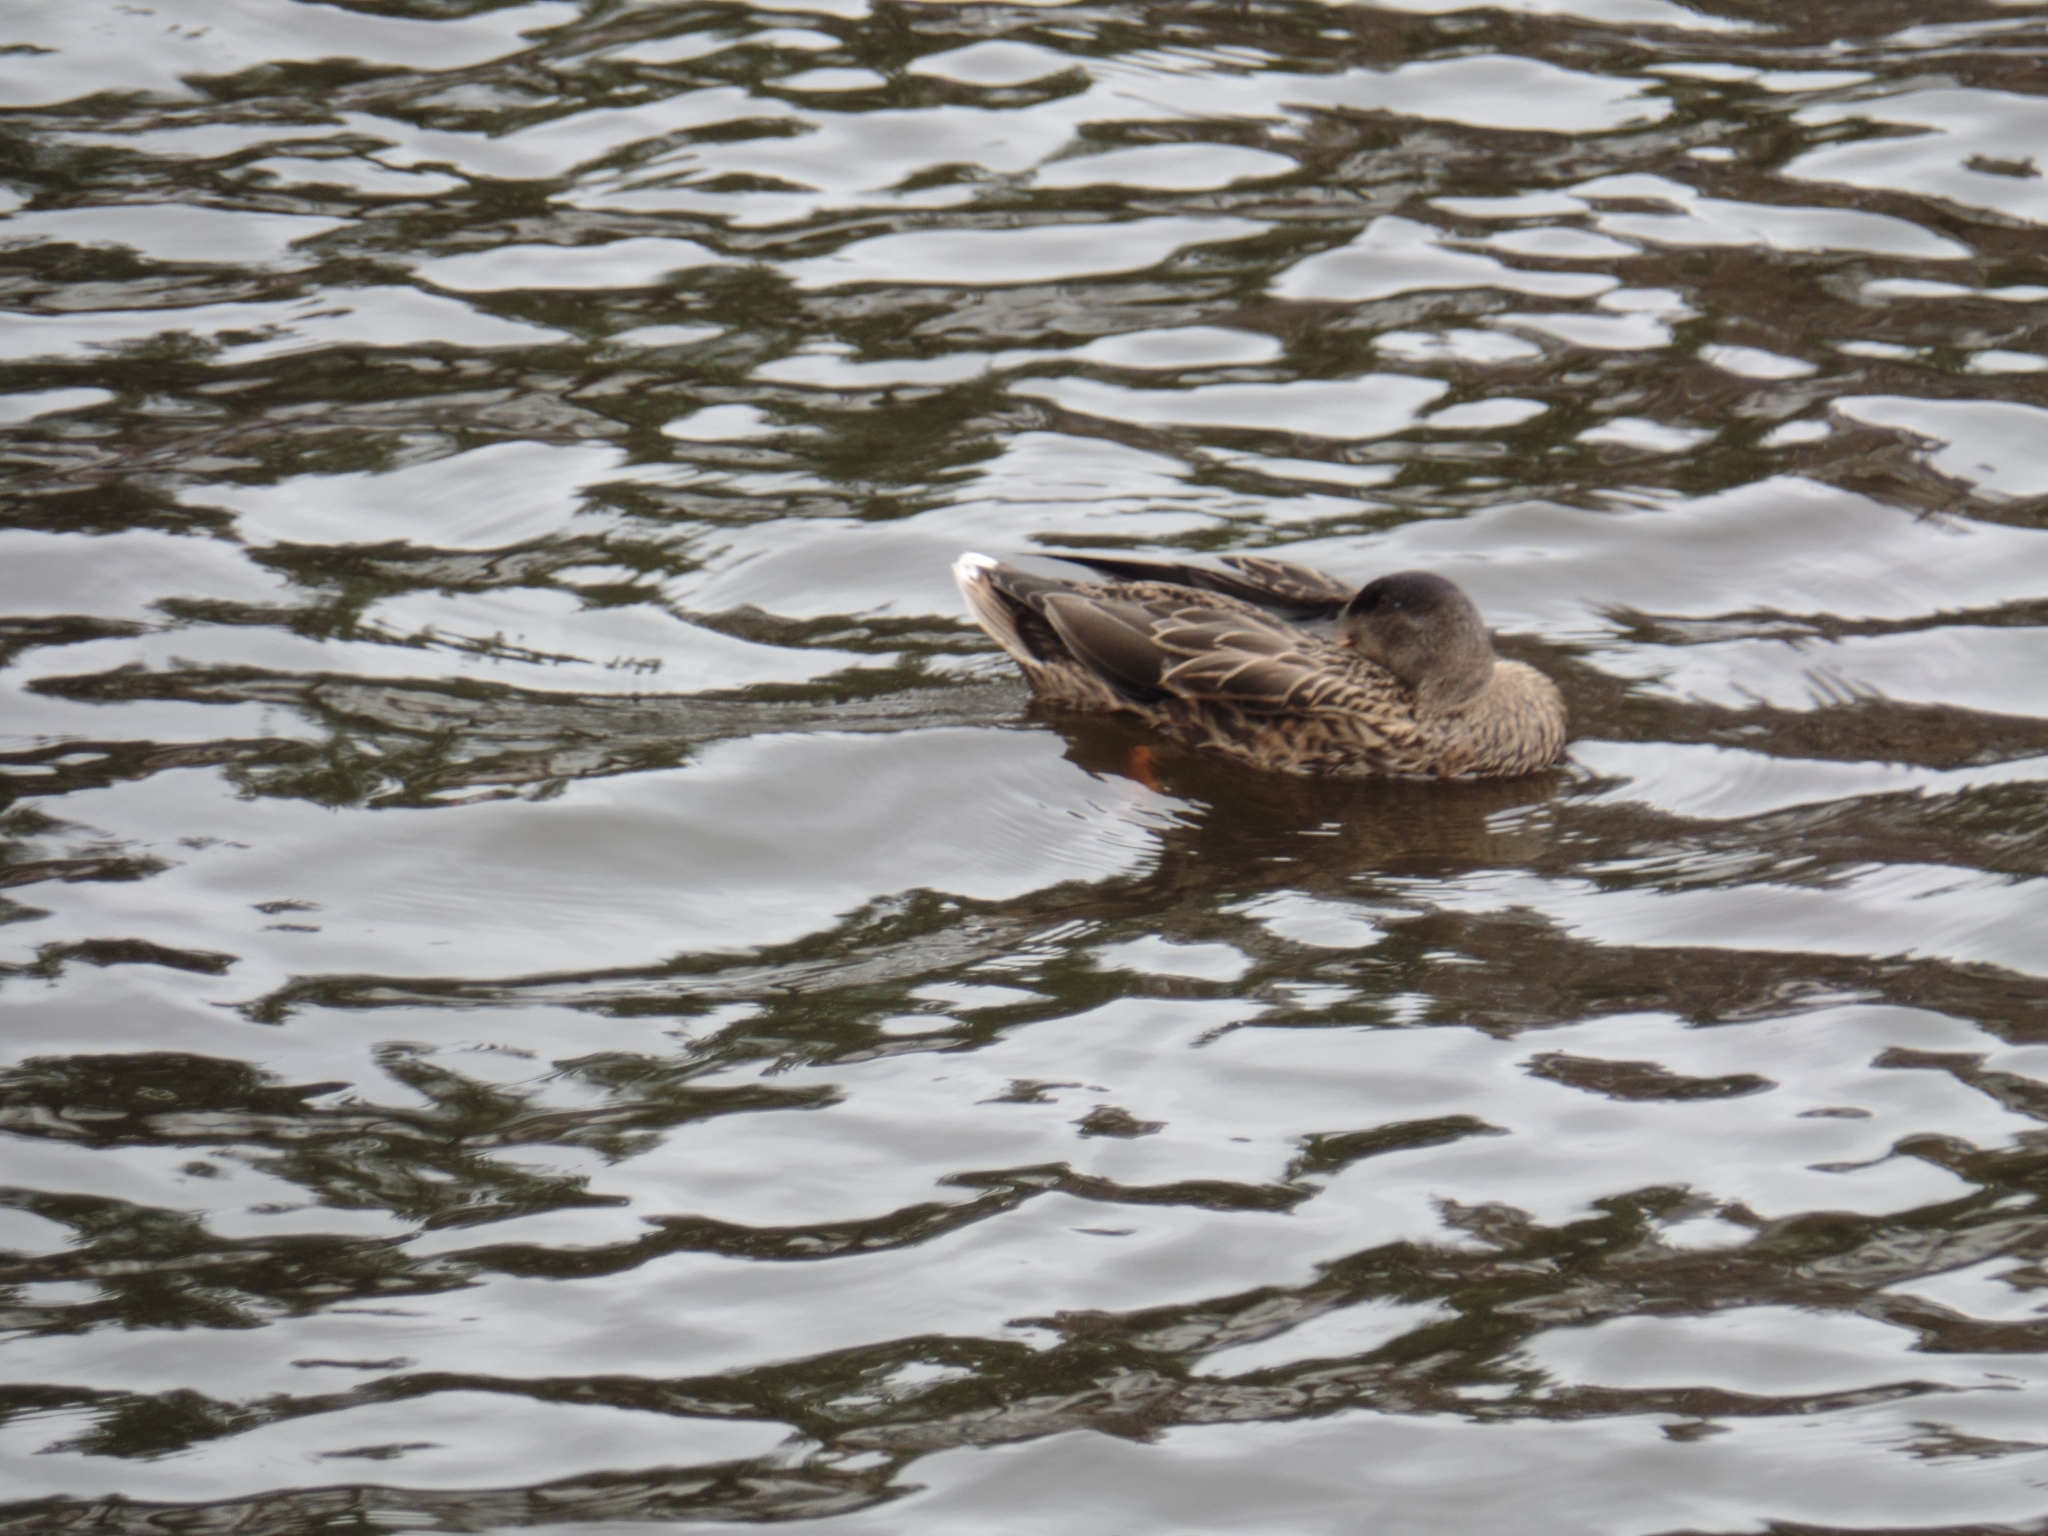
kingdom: Animalia
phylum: Chordata
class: Aves
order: Anseriformes
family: Anatidae
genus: Anas
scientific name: Anas platyrhynchos
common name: Mallard
